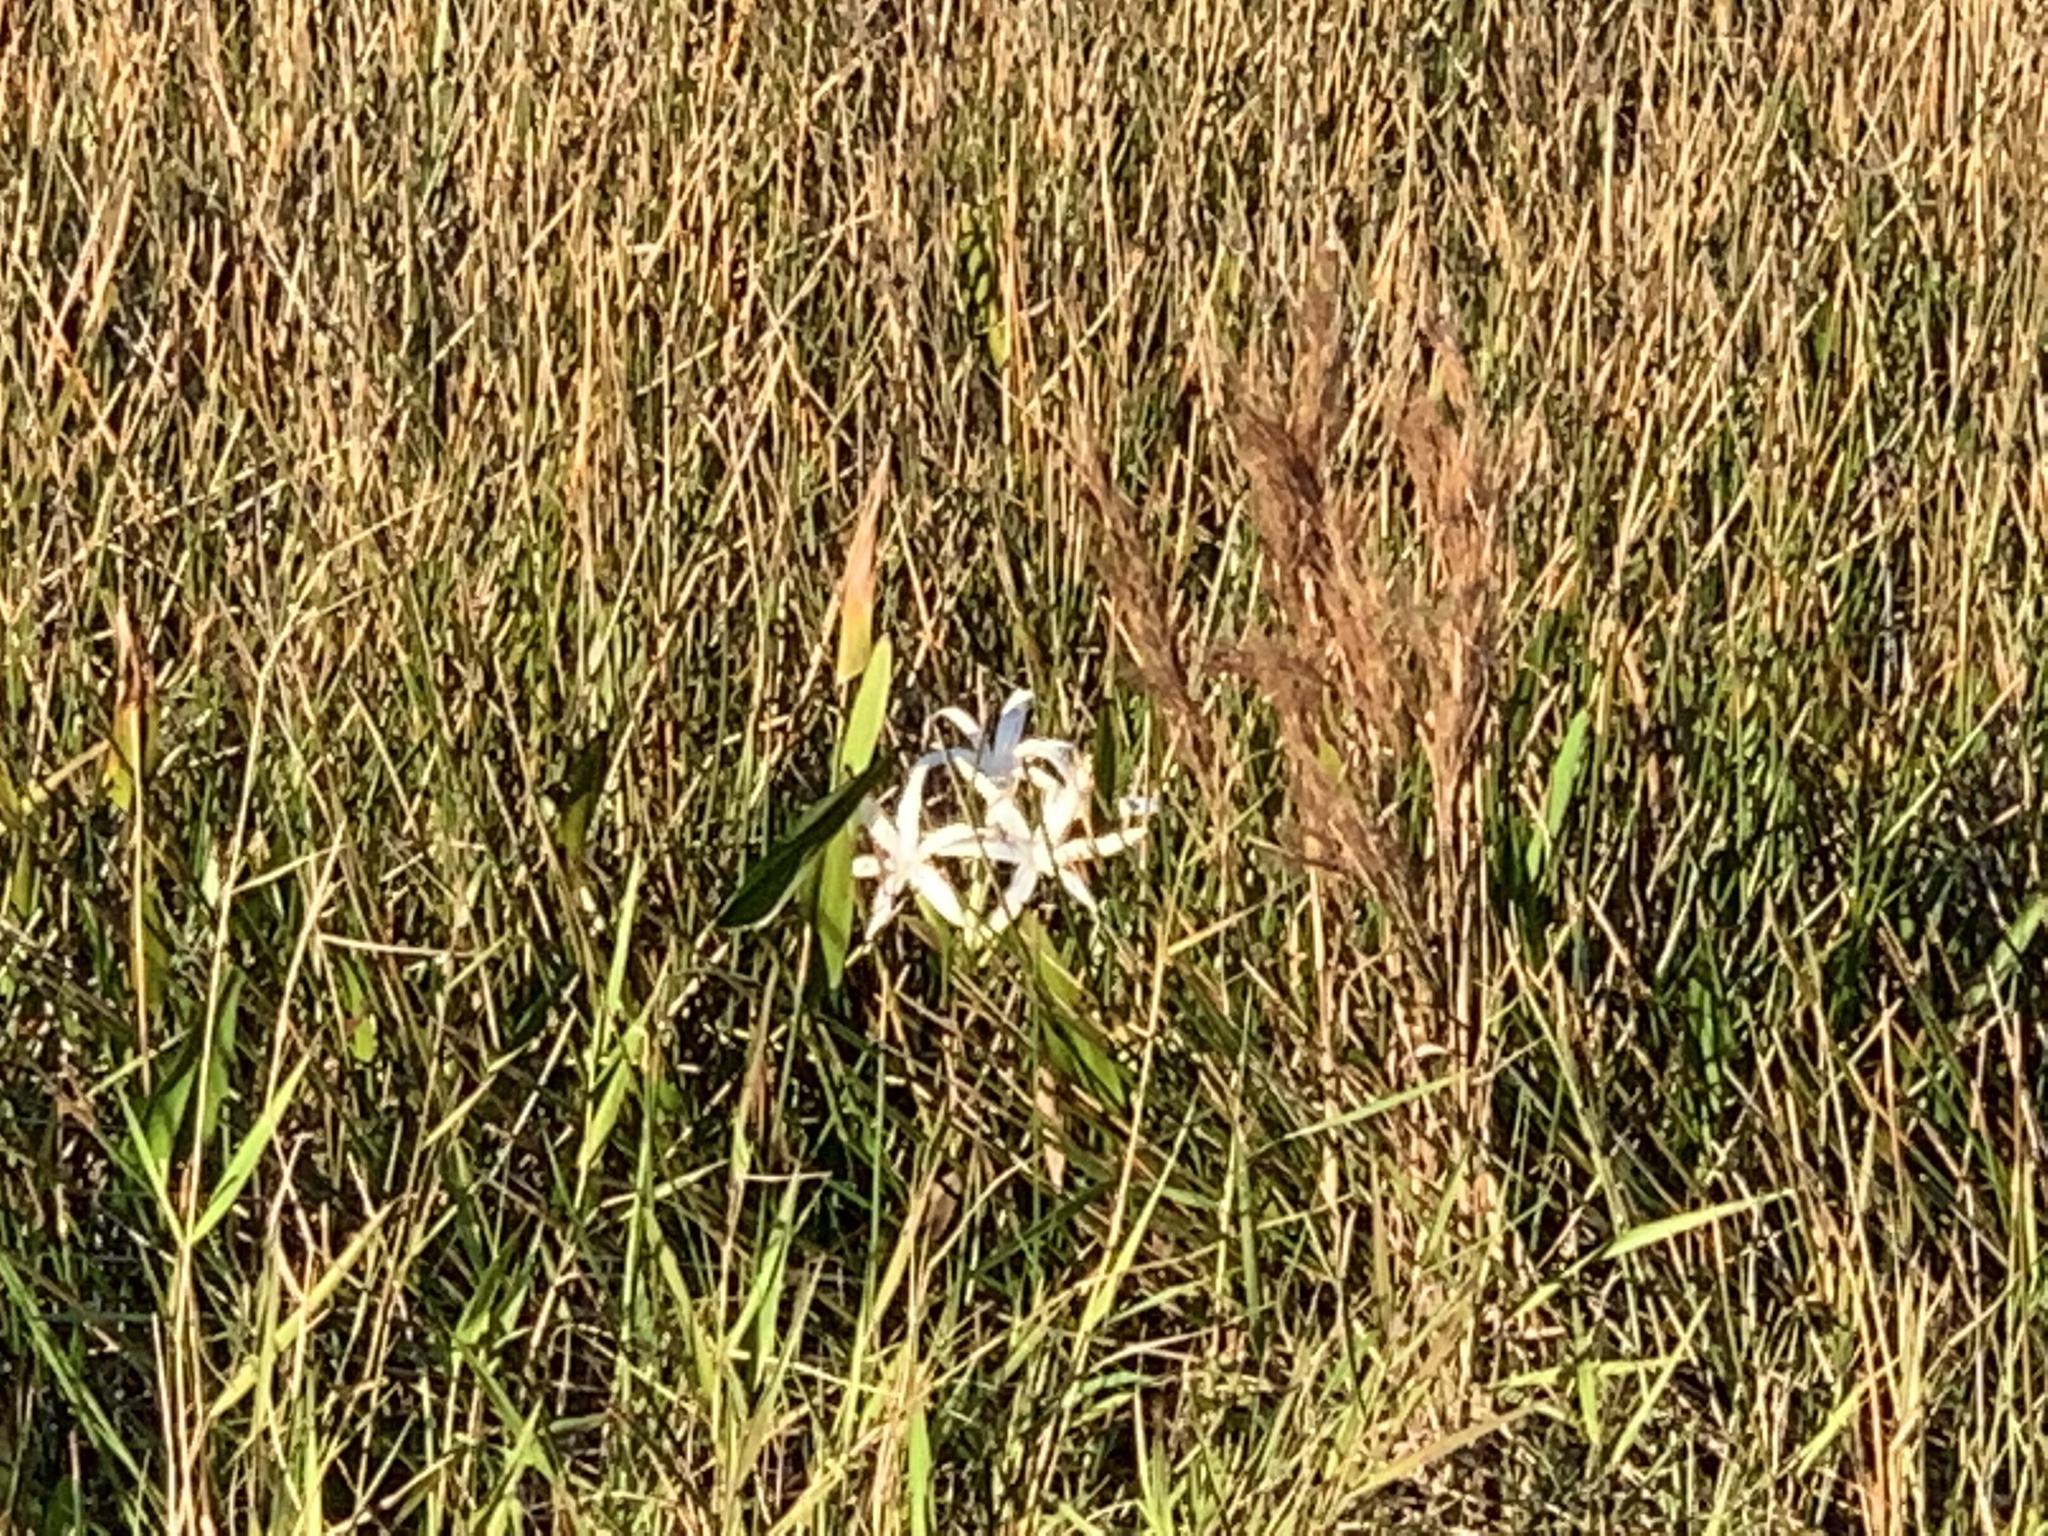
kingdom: Plantae
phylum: Tracheophyta
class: Liliopsida
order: Asparagales
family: Amaryllidaceae
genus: Crinum
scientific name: Crinum americanum
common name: Florida swamp-lily
